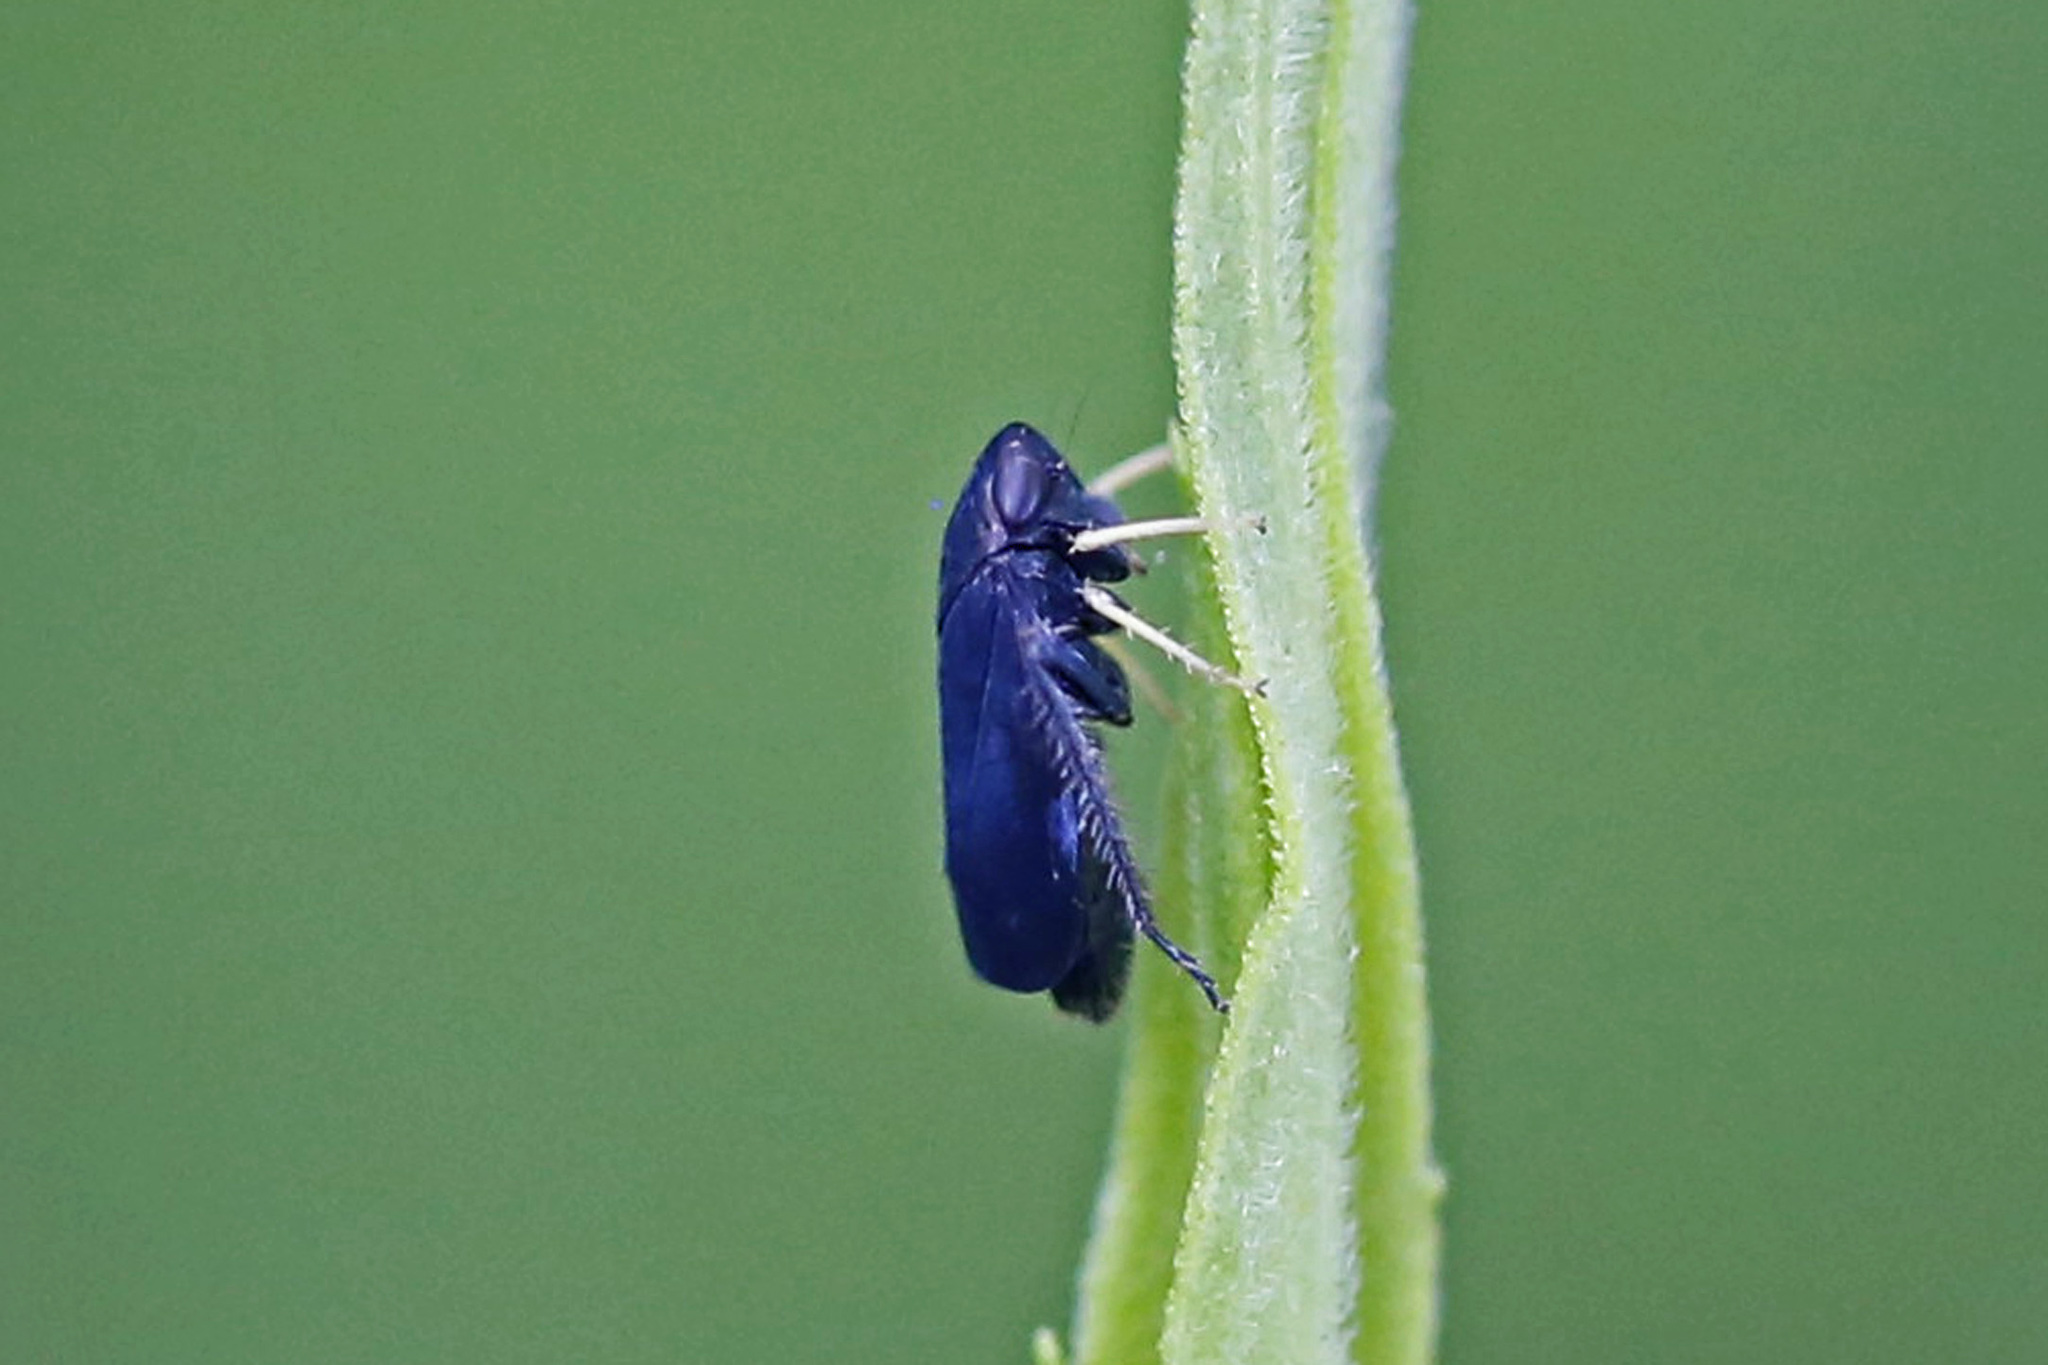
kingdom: Animalia
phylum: Arthropoda
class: Insecta
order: Hemiptera
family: Cicadellidae
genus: Scleroracus
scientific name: Scleroracus anthracinus
